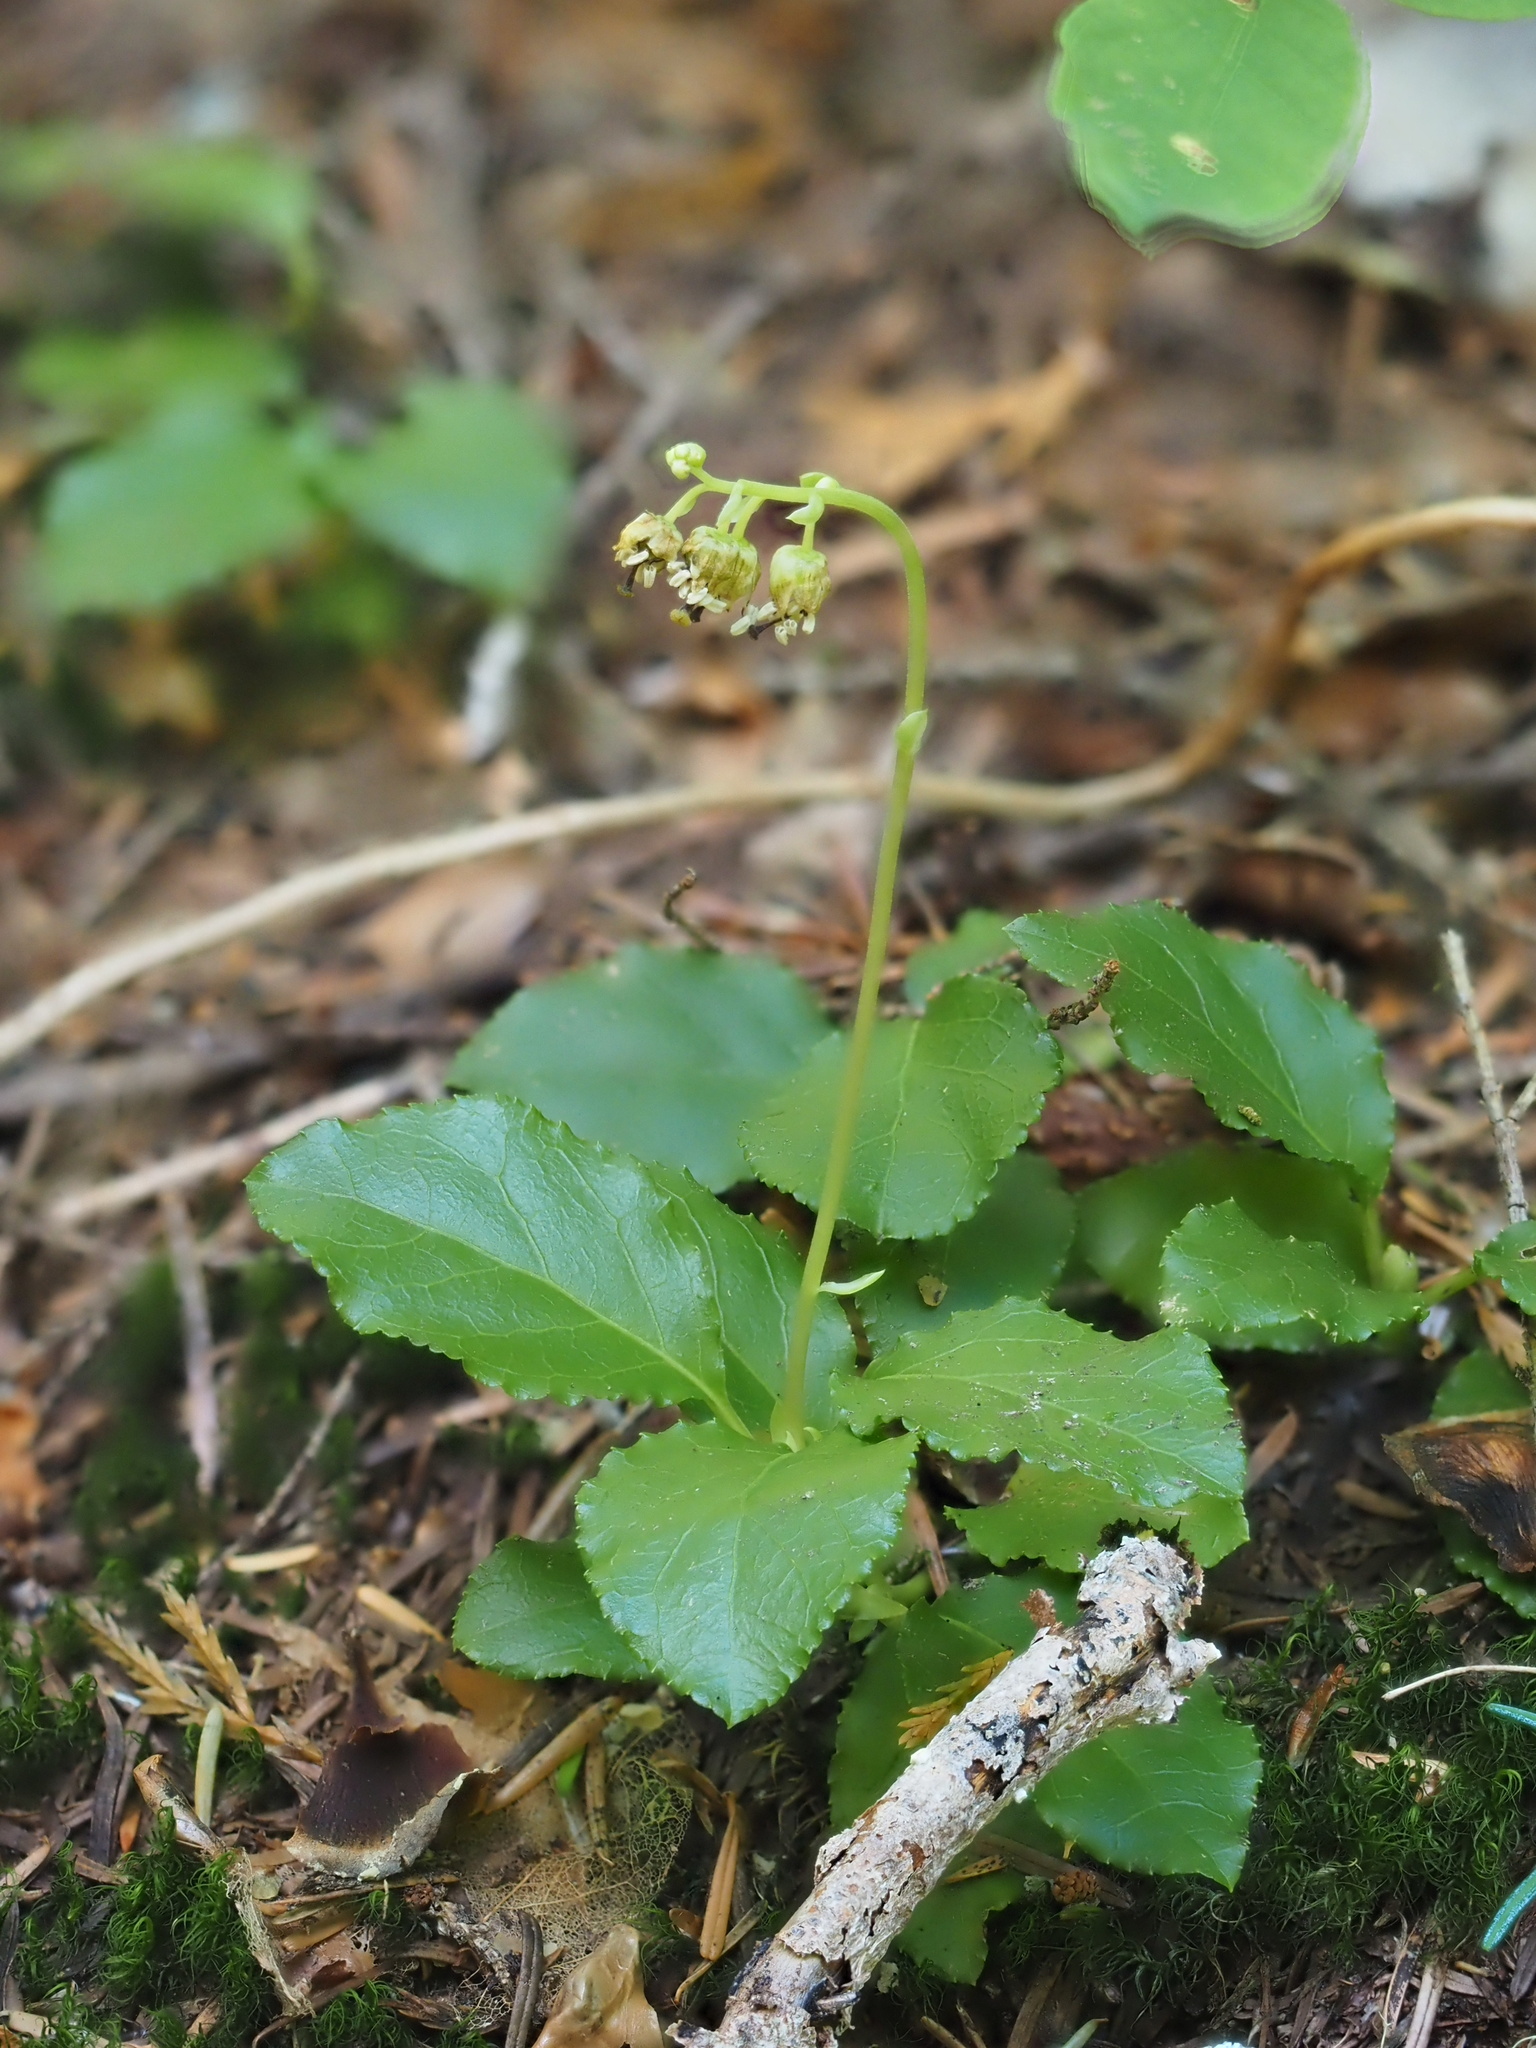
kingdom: Plantae
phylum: Tracheophyta
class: Magnoliopsida
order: Ericales
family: Ericaceae
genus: Orthilia
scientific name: Orthilia secunda
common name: One-sided orthilia
